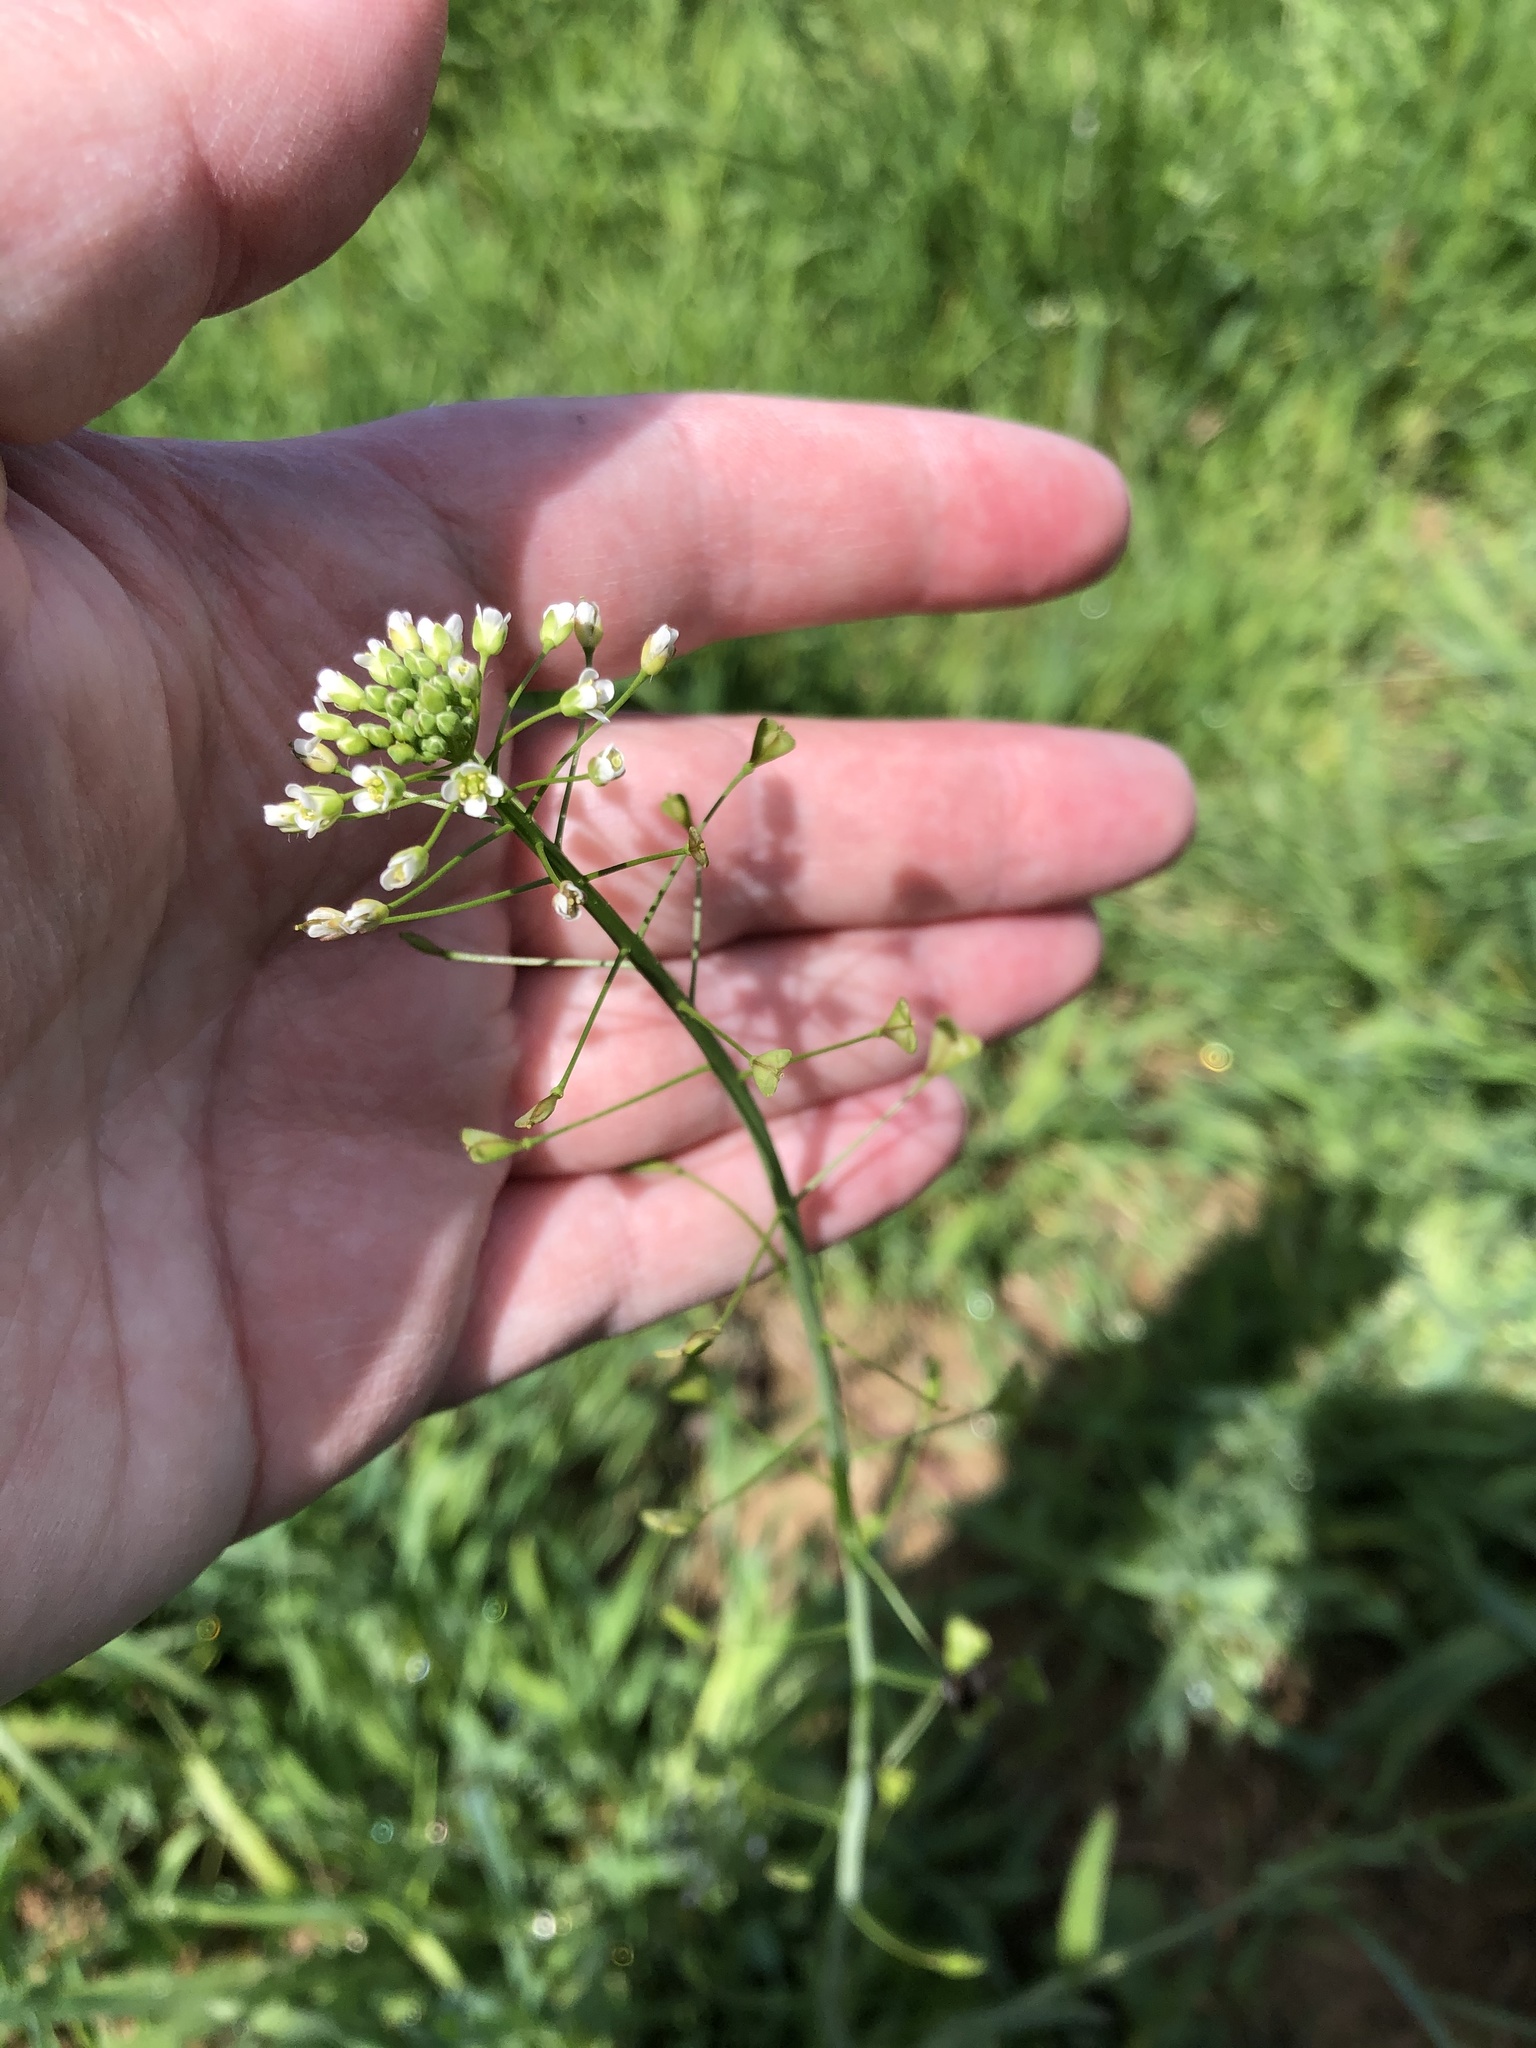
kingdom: Plantae
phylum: Tracheophyta
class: Magnoliopsida
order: Brassicales
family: Brassicaceae
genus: Capsella
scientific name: Capsella bursa-pastoris
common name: Shepherd's purse
